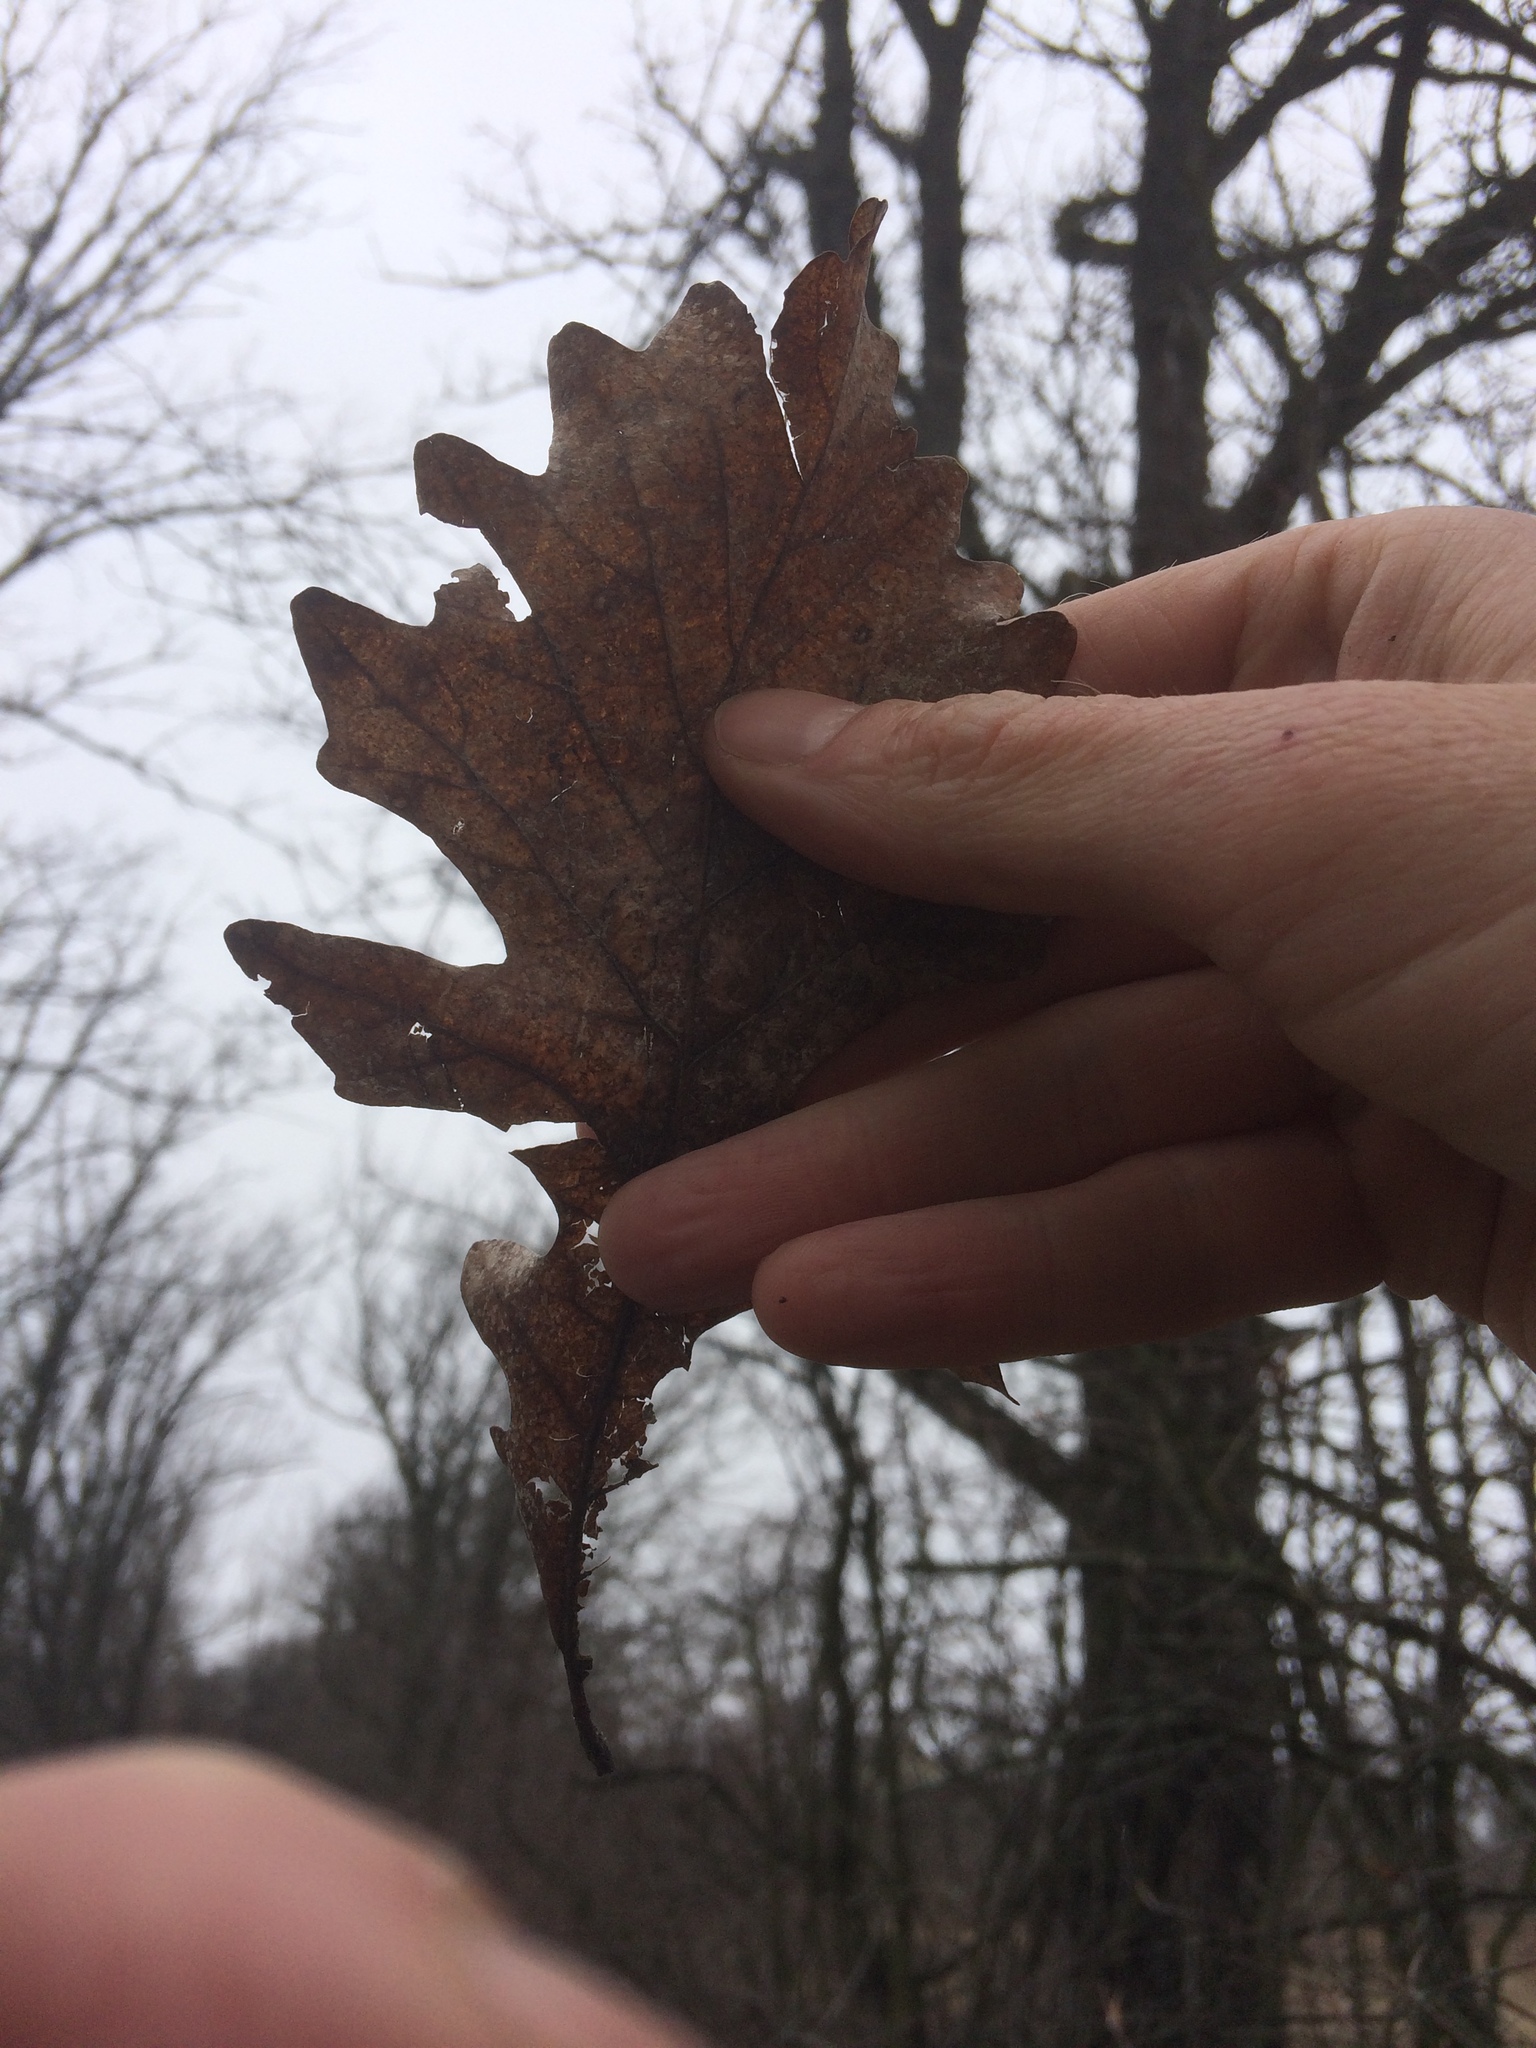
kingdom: Plantae
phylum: Tracheophyta
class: Magnoliopsida
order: Fagales
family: Fagaceae
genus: Quercus
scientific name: Quercus macrocarpa
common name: Bur oak
